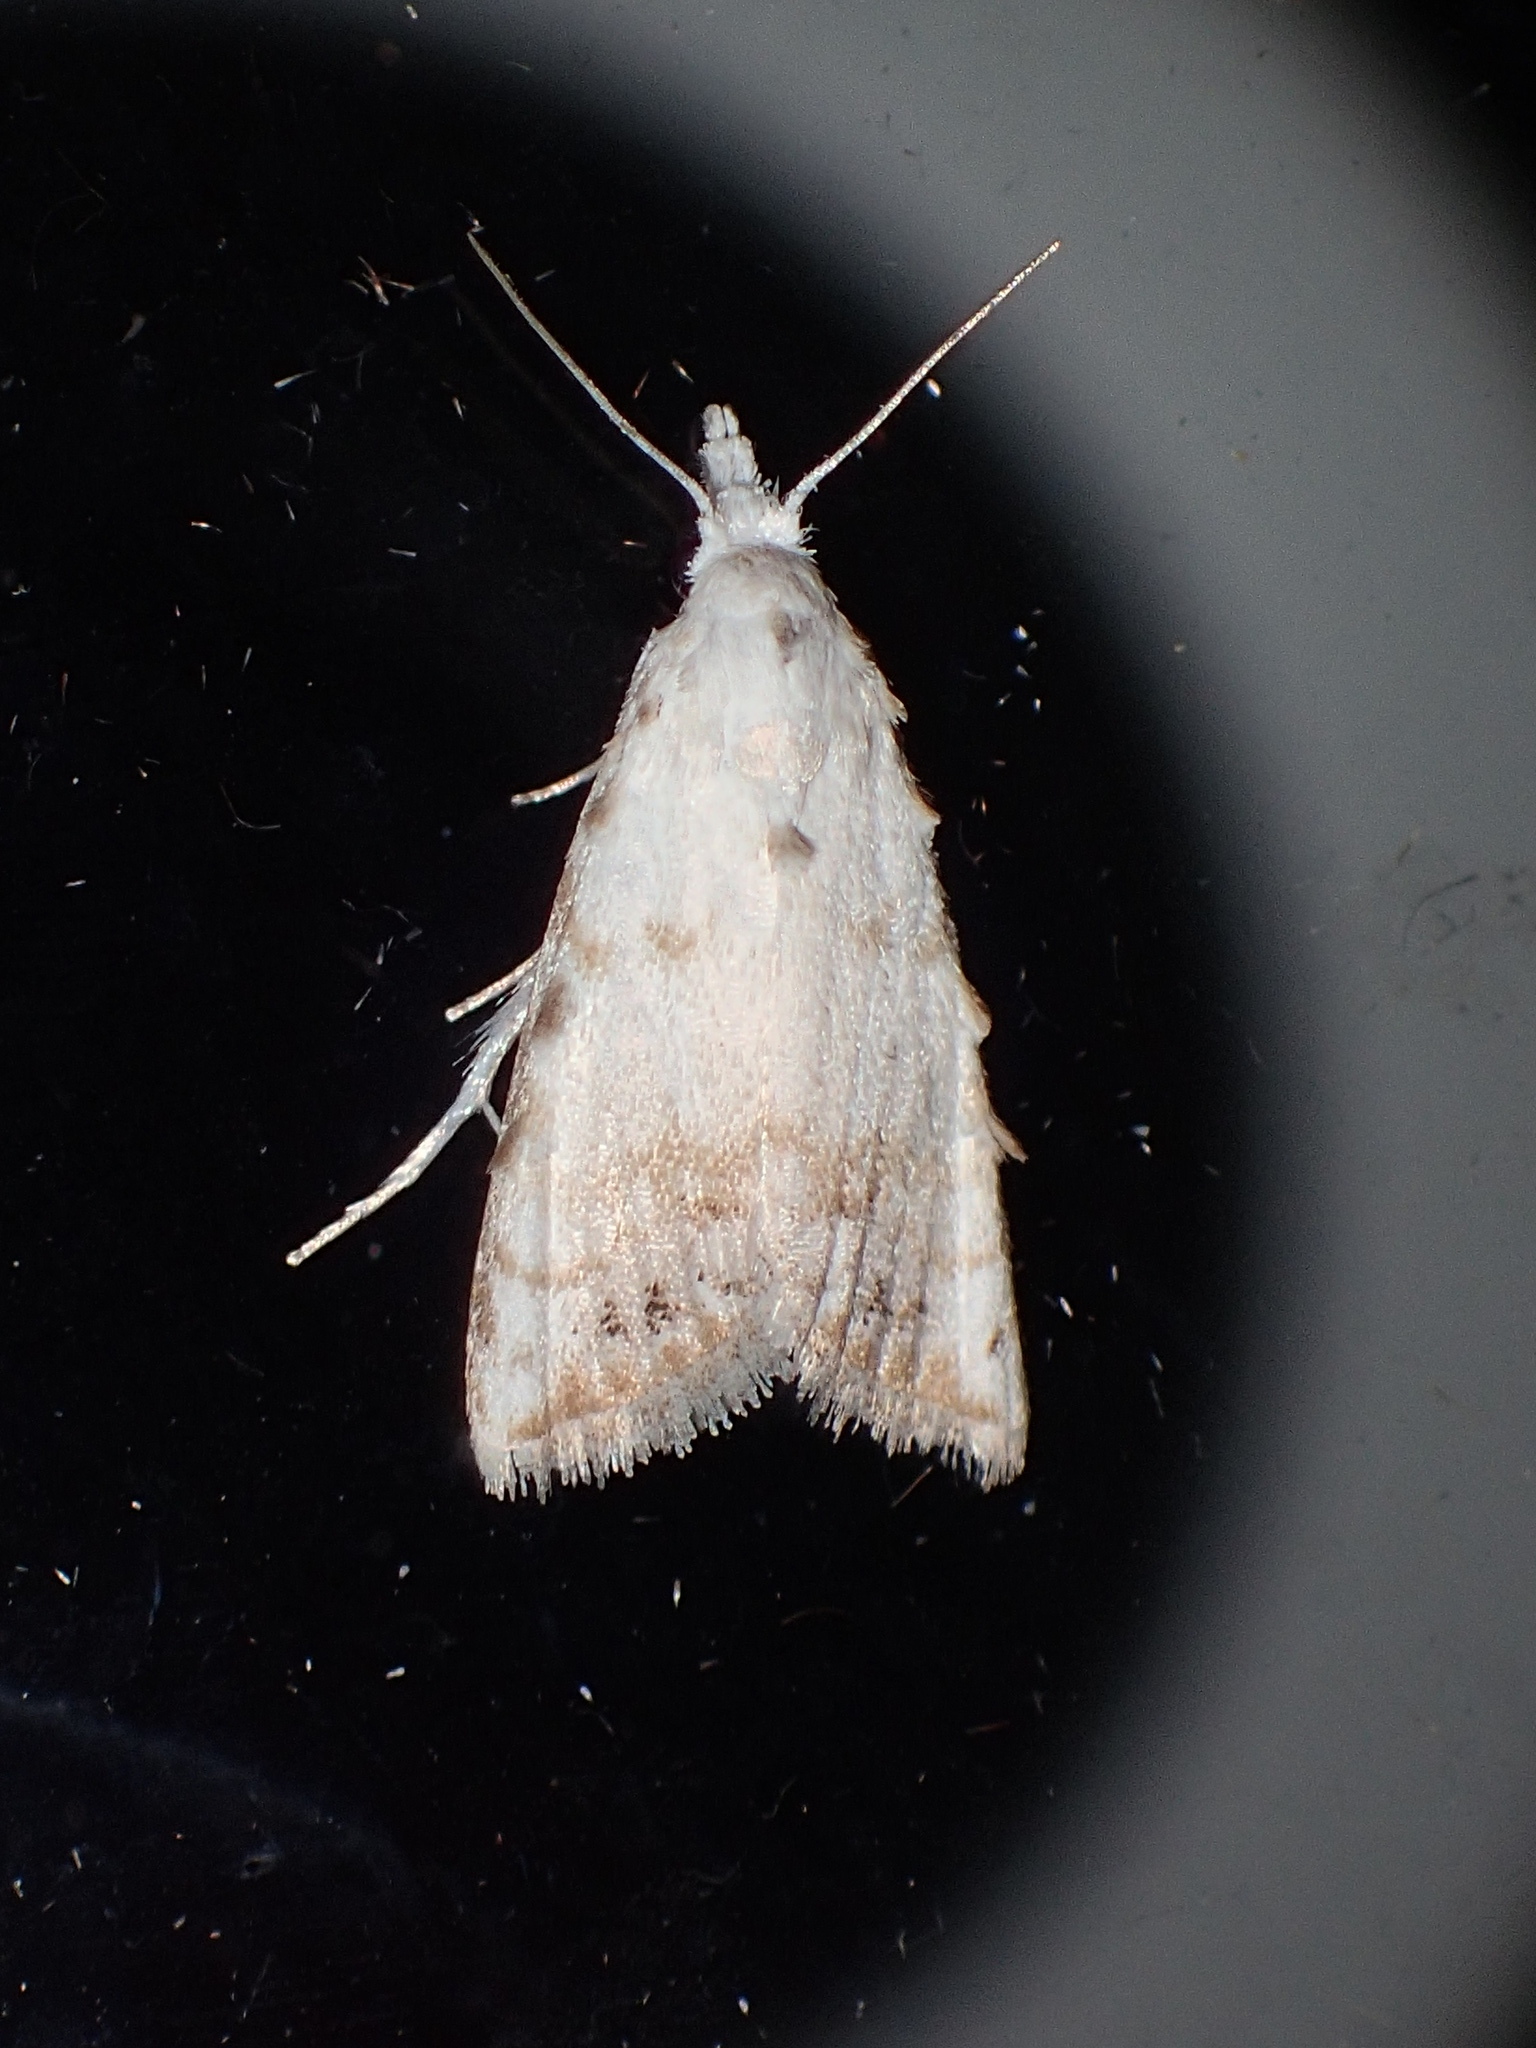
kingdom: Animalia
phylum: Arthropoda
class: Insecta
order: Lepidoptera
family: Nolidae
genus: Nola
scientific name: Nola cereella
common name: Sorghum webworm moth
